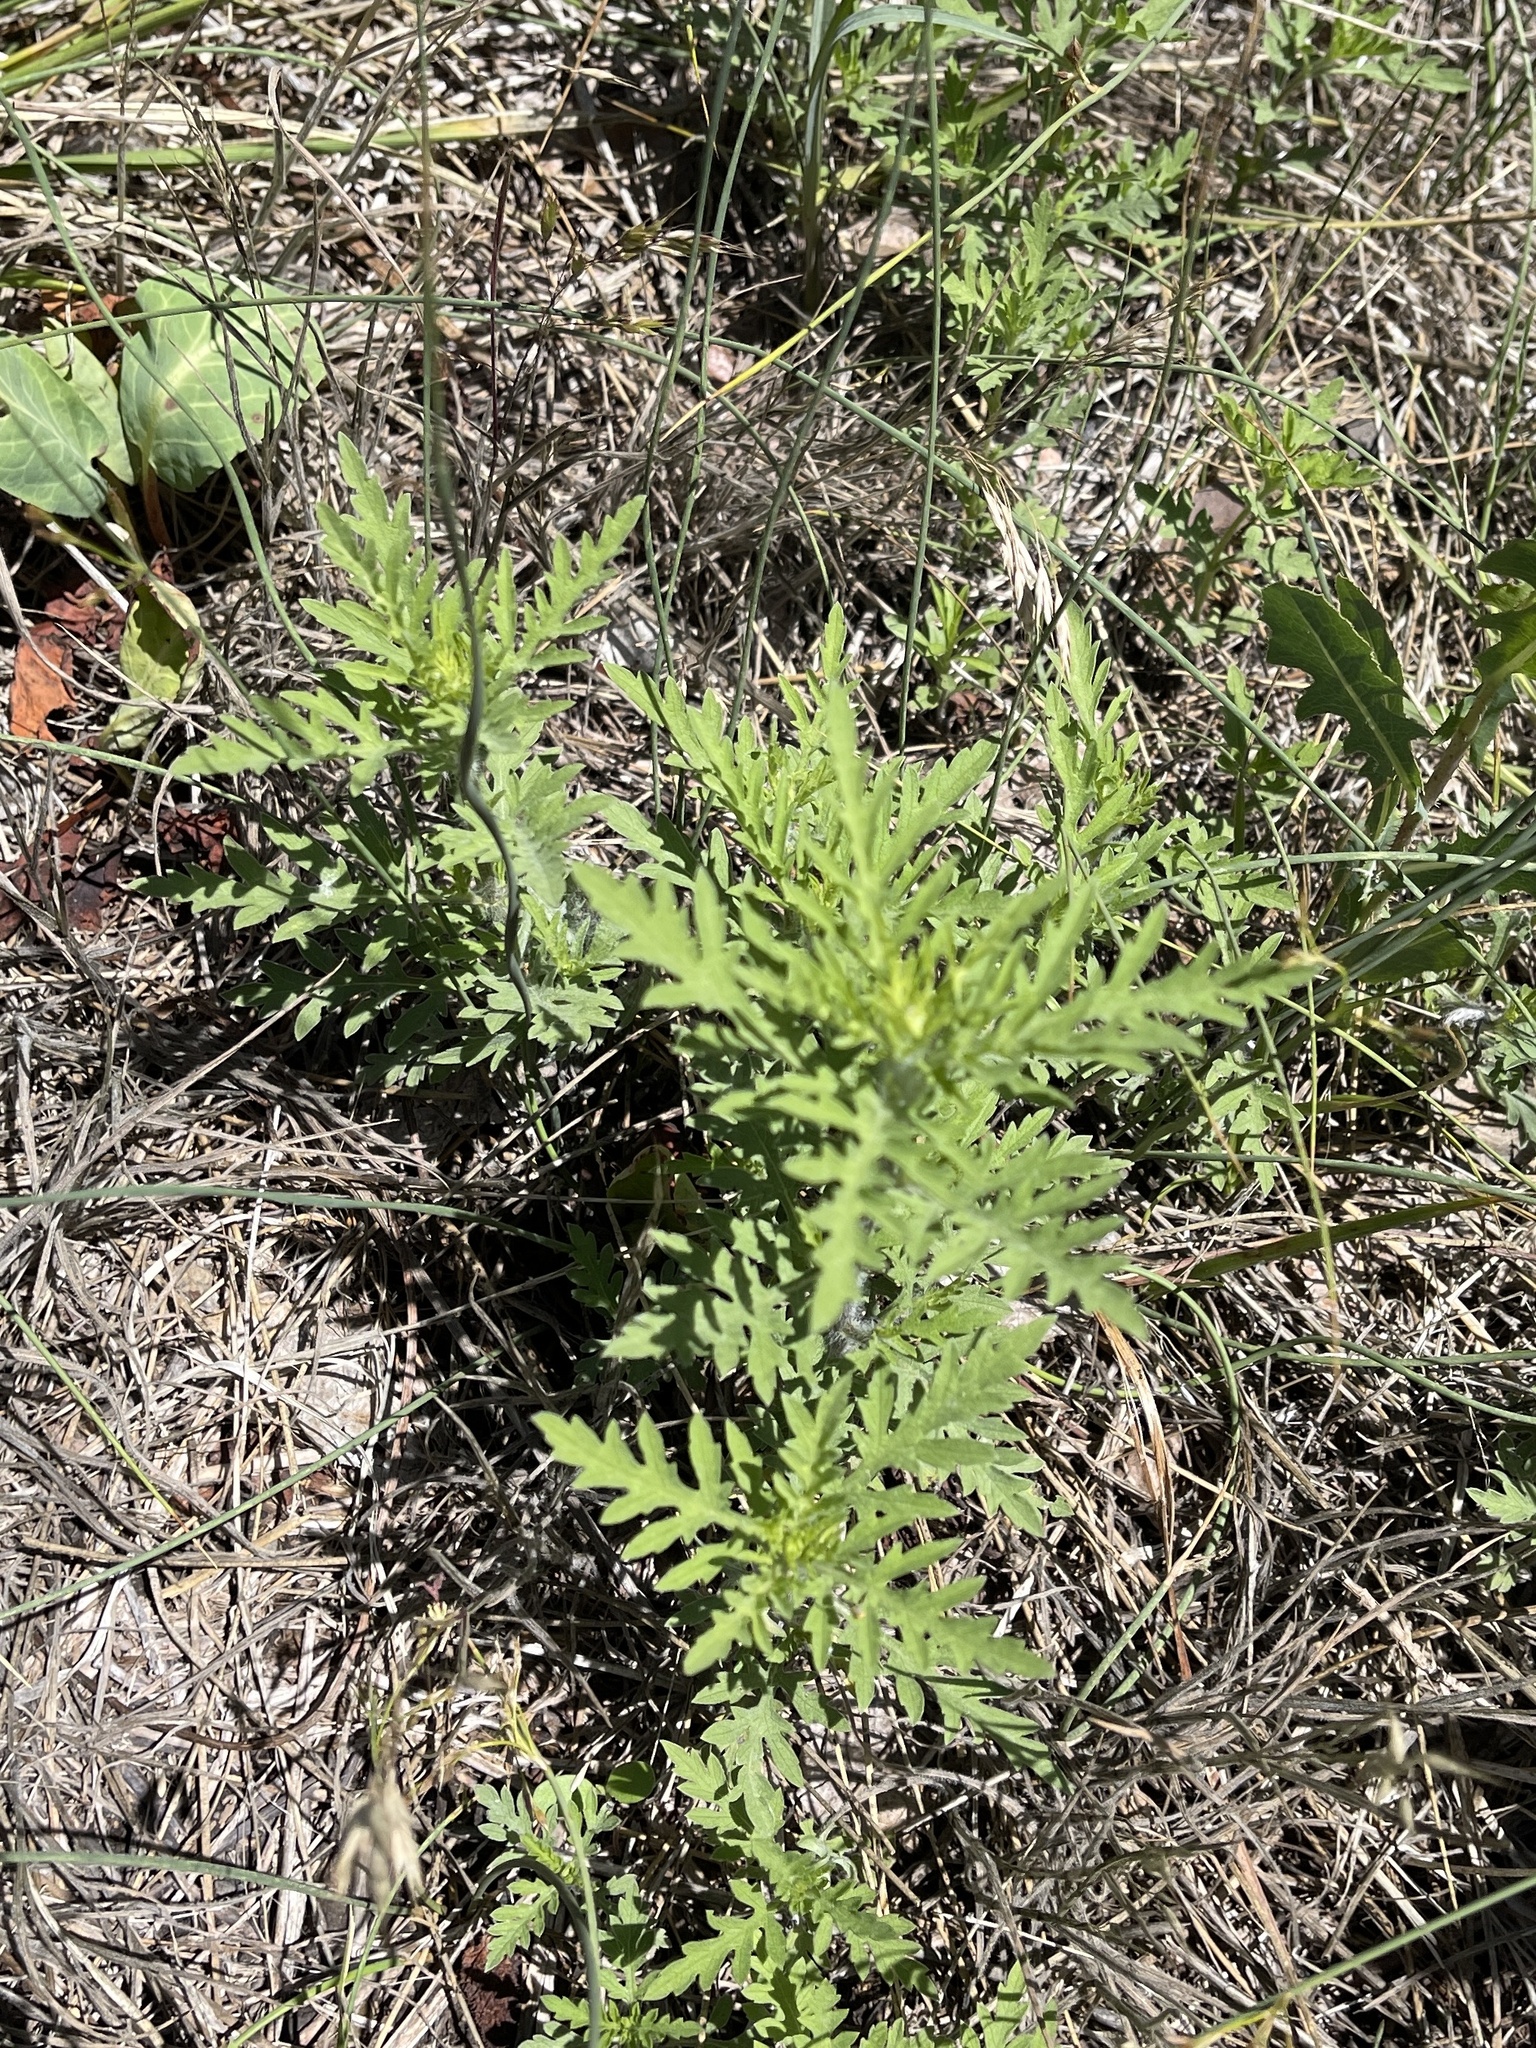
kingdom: Plantae
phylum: Tracheophyta
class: Magnoliopsida
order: Asterales
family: Asteraceae
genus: Ambrosia
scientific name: Ambrosia psilostachya
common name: Perennial ragweed
